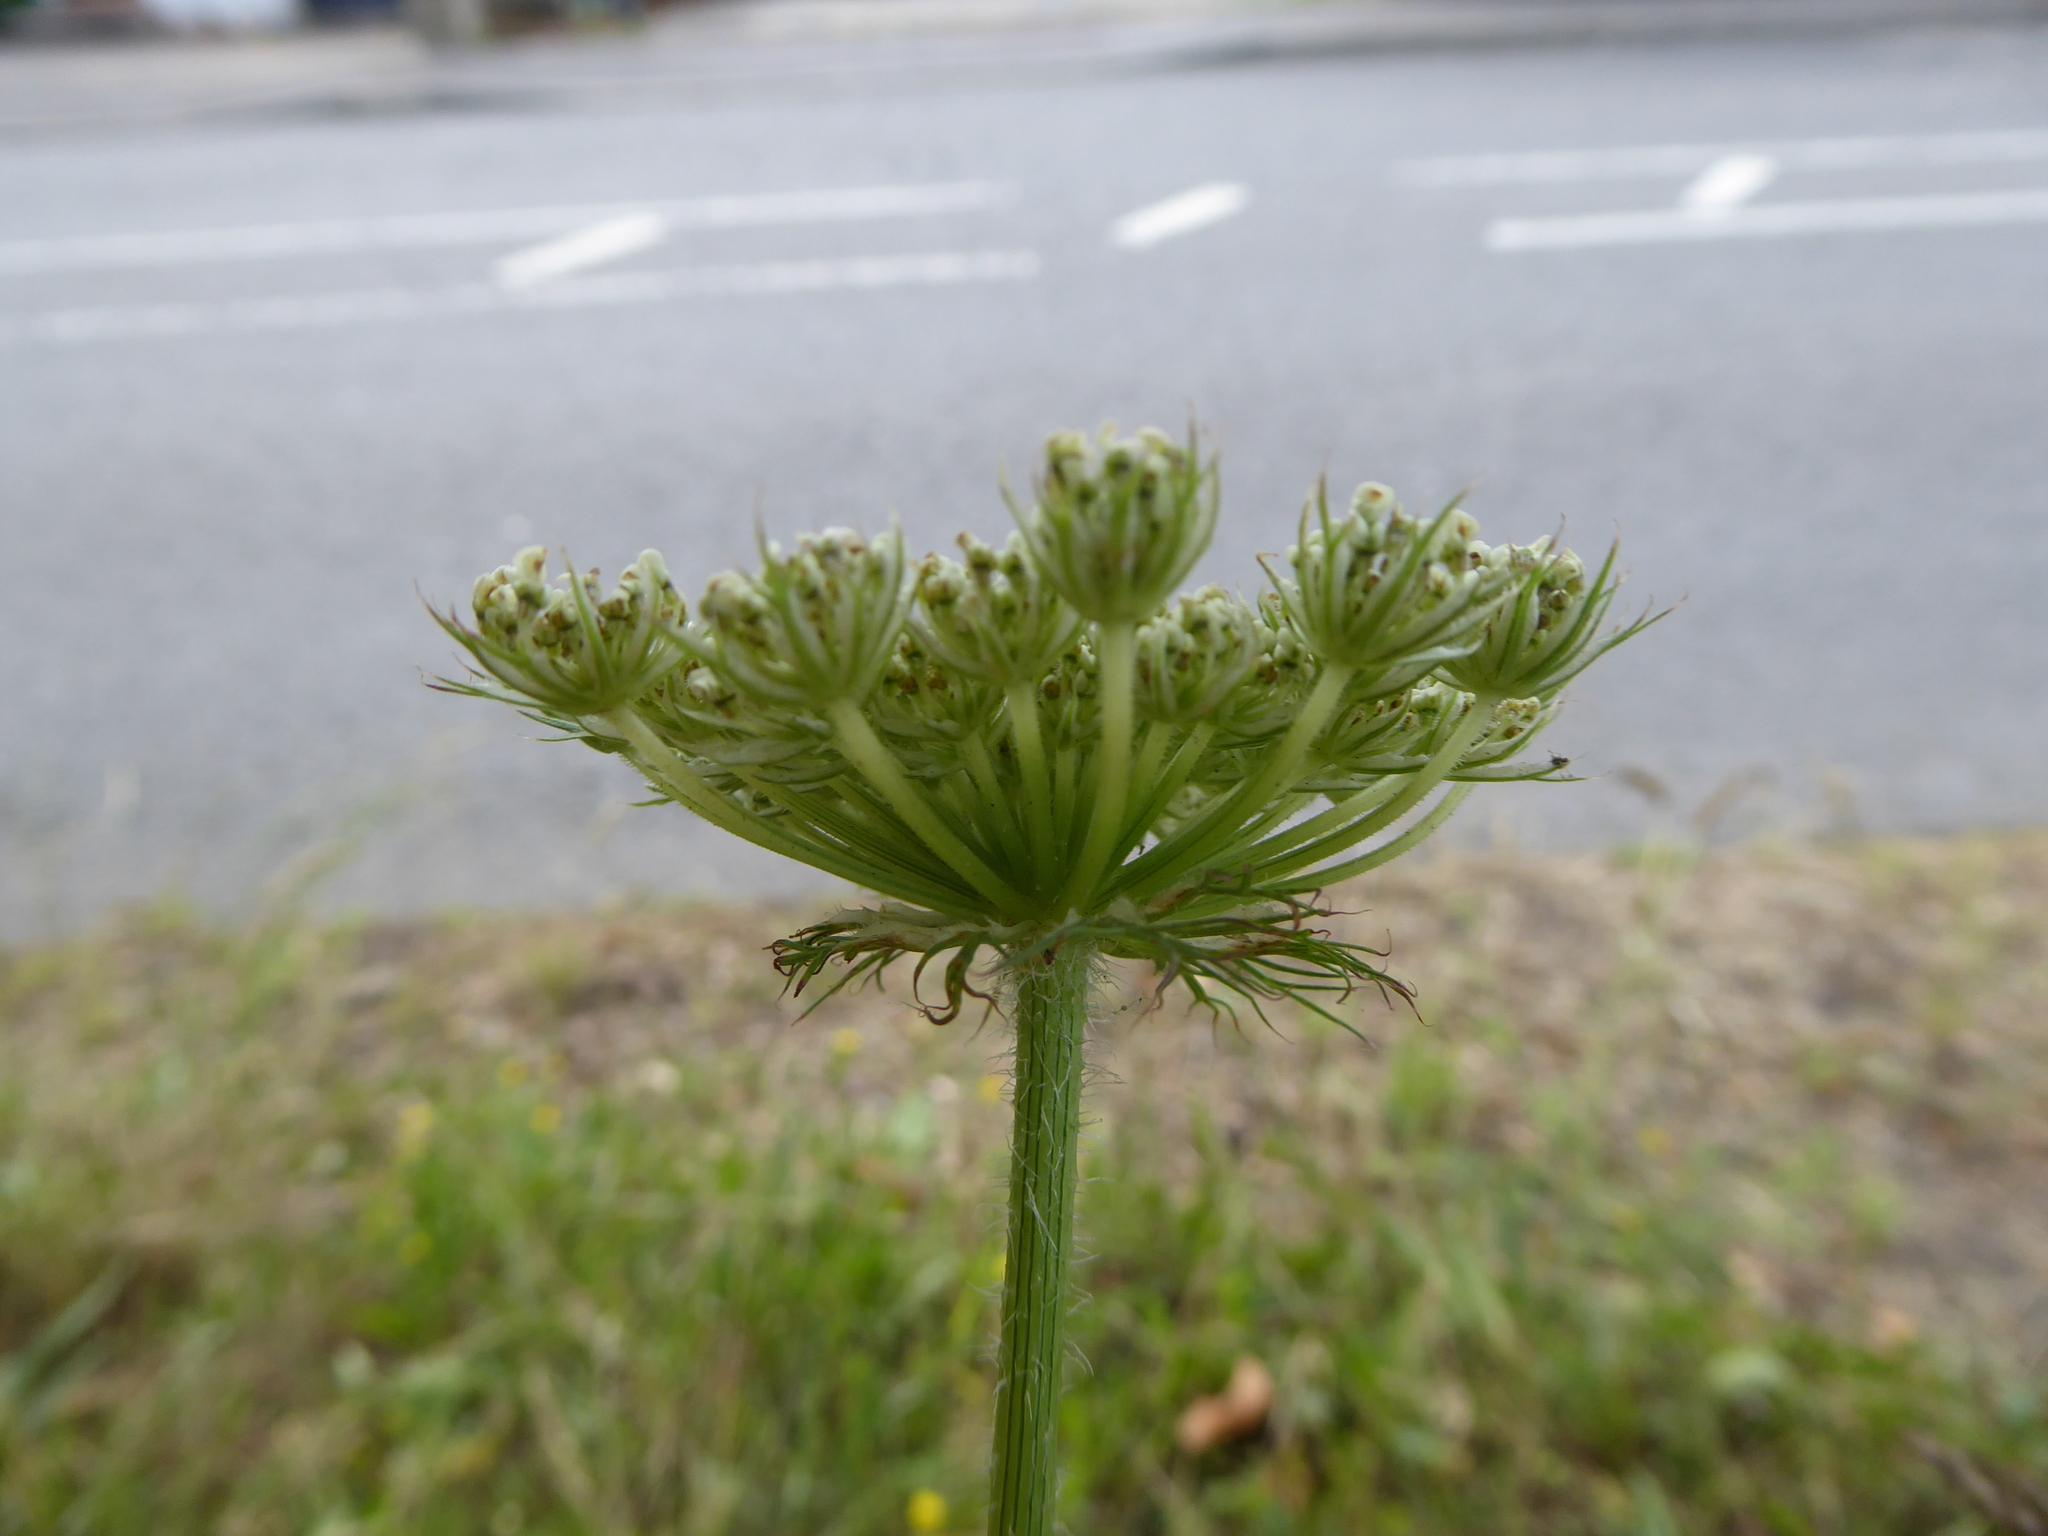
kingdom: Plantae
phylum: Tracheophyta
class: Magnoliopsida
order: Apiales
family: Apiaceae
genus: Daucus
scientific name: Daucus carota
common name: Wild carrot
